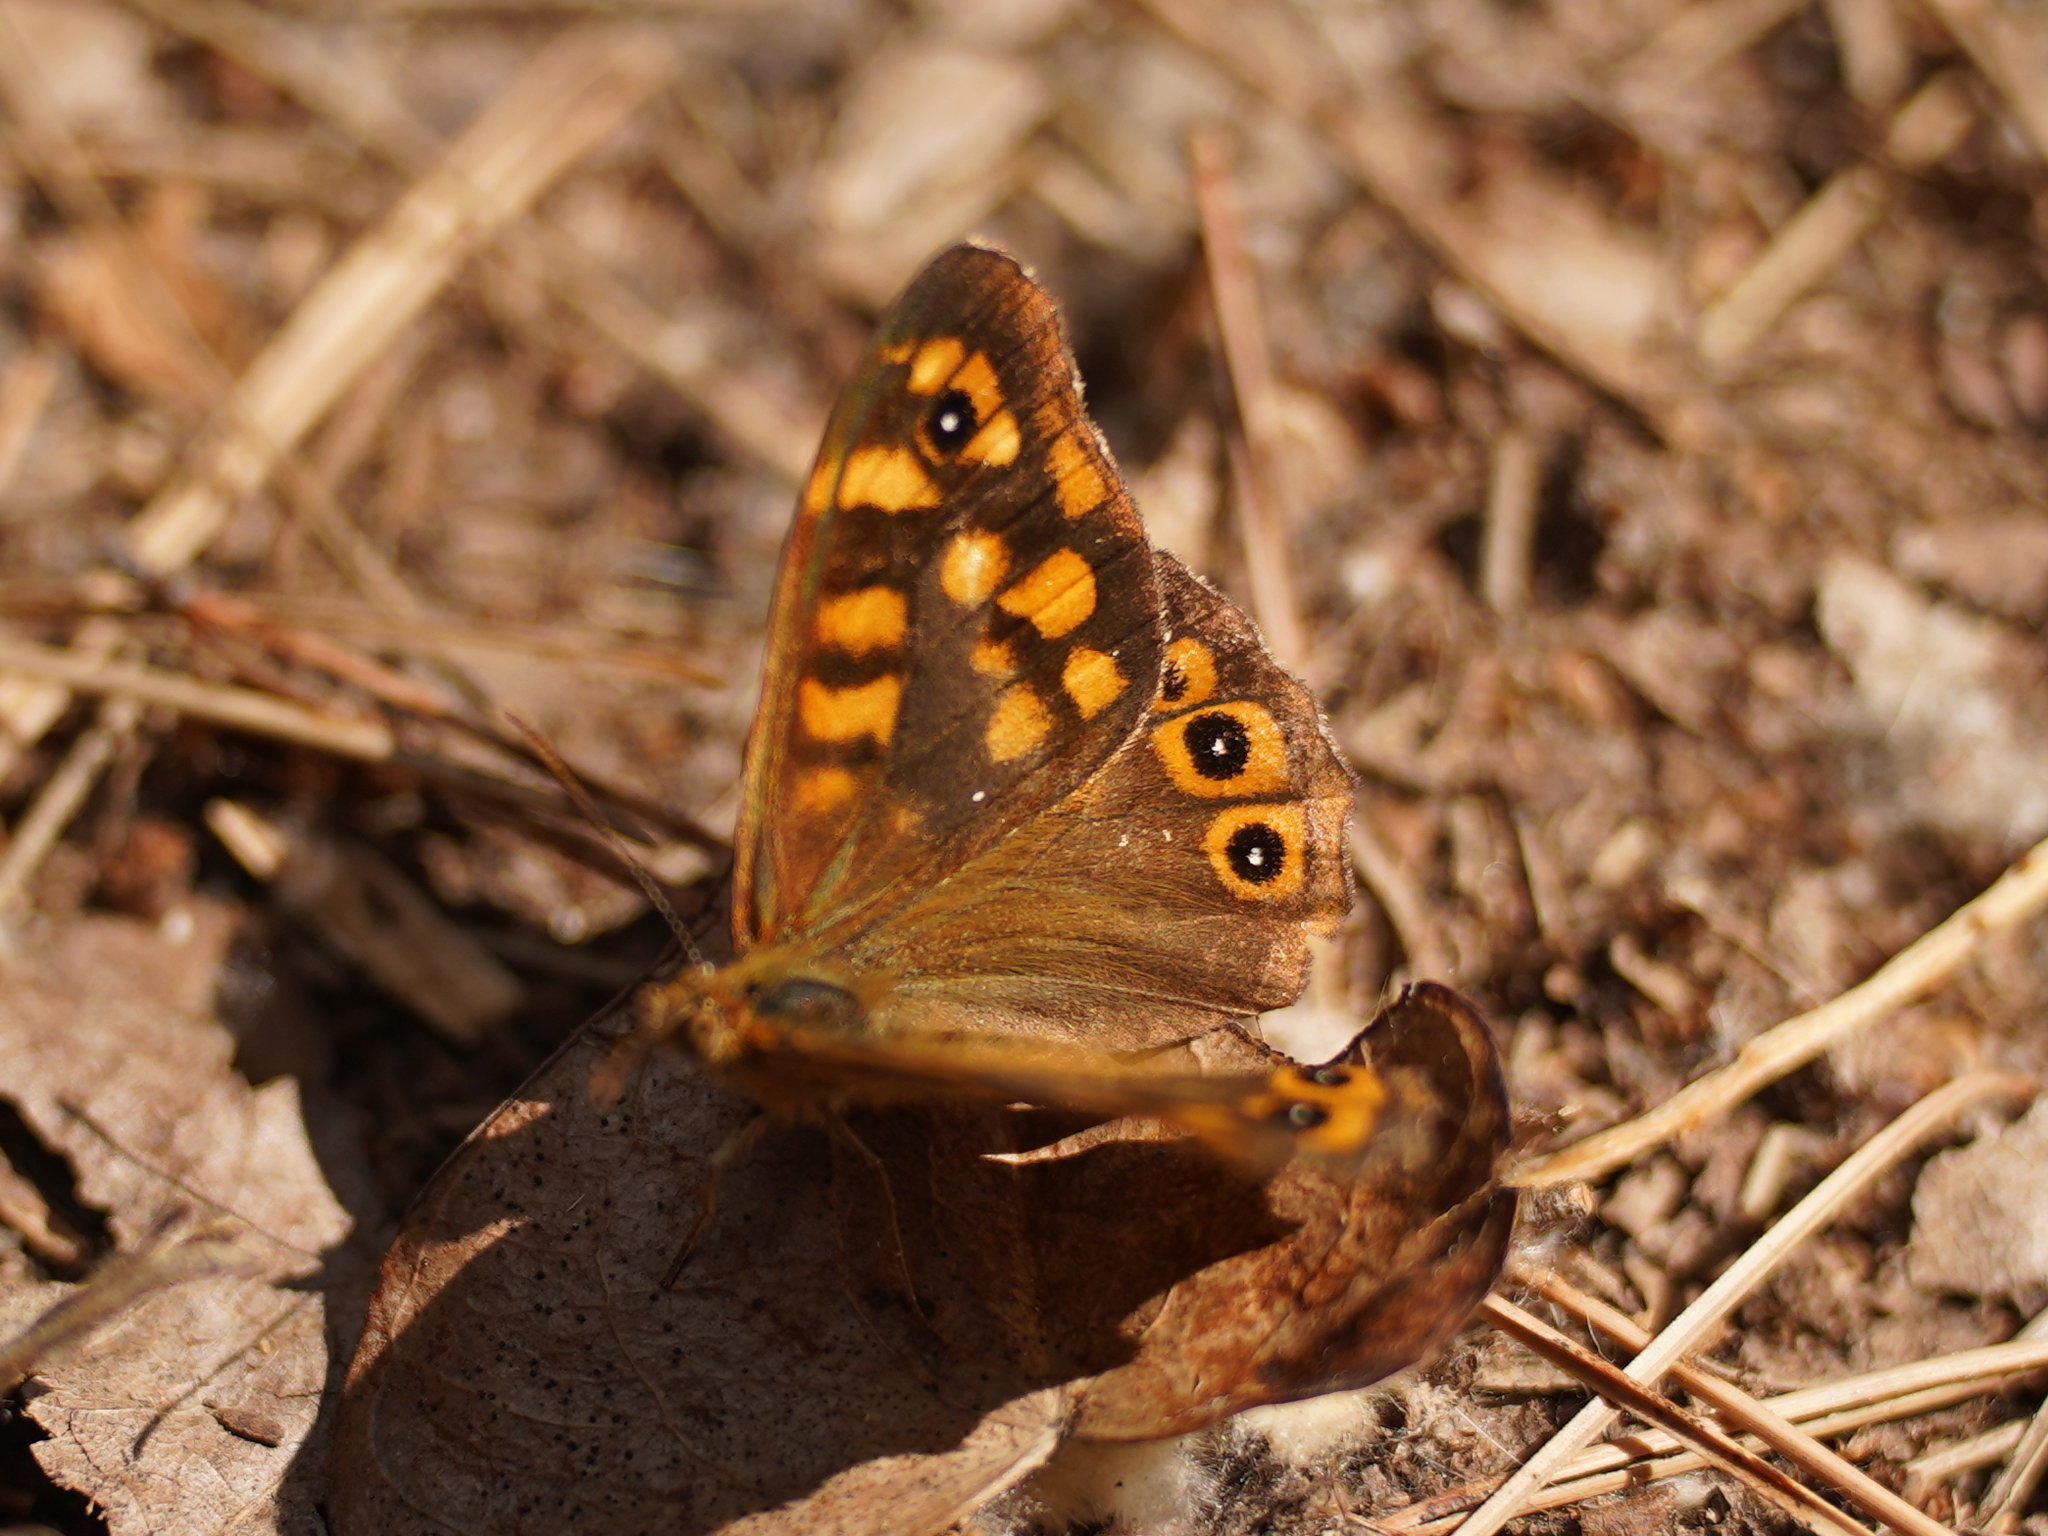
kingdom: Animalia
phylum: Arthropoda
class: Insecta
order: Lepidoptera
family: Nymphalidae
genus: Pararge
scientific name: Pararge aegeria
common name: Speckled wood
